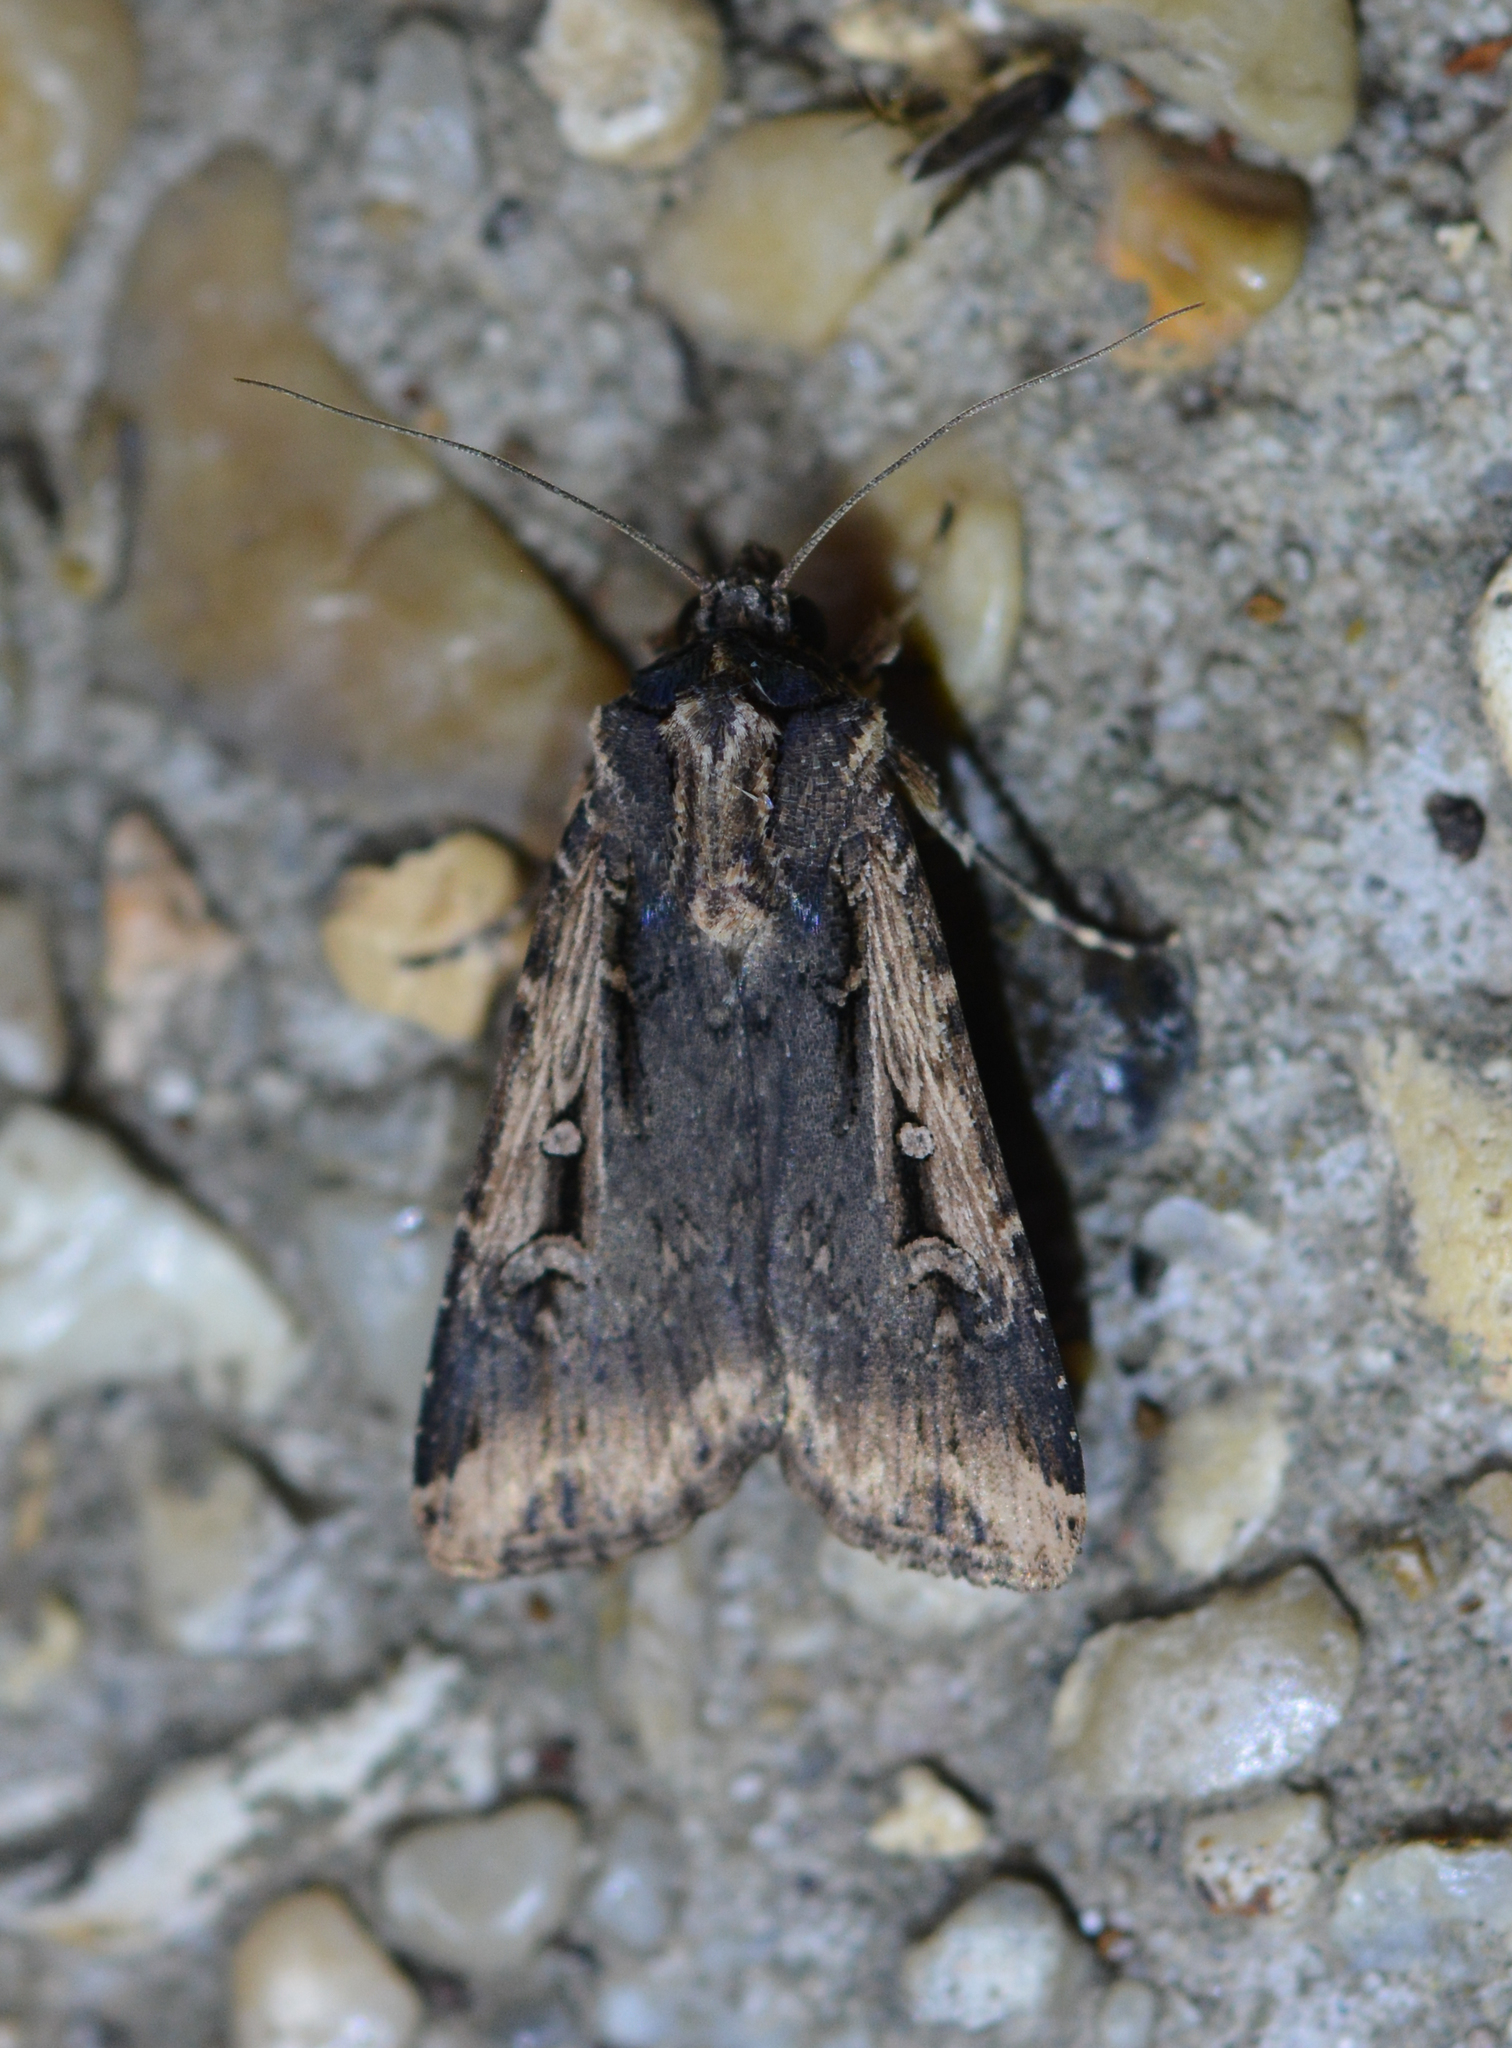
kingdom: Animalia
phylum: Arthropoda
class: Insecta
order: Lepidoptera
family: Noctuidae
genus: Feltia
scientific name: Feltia subterranea
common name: Granulate cutworm
